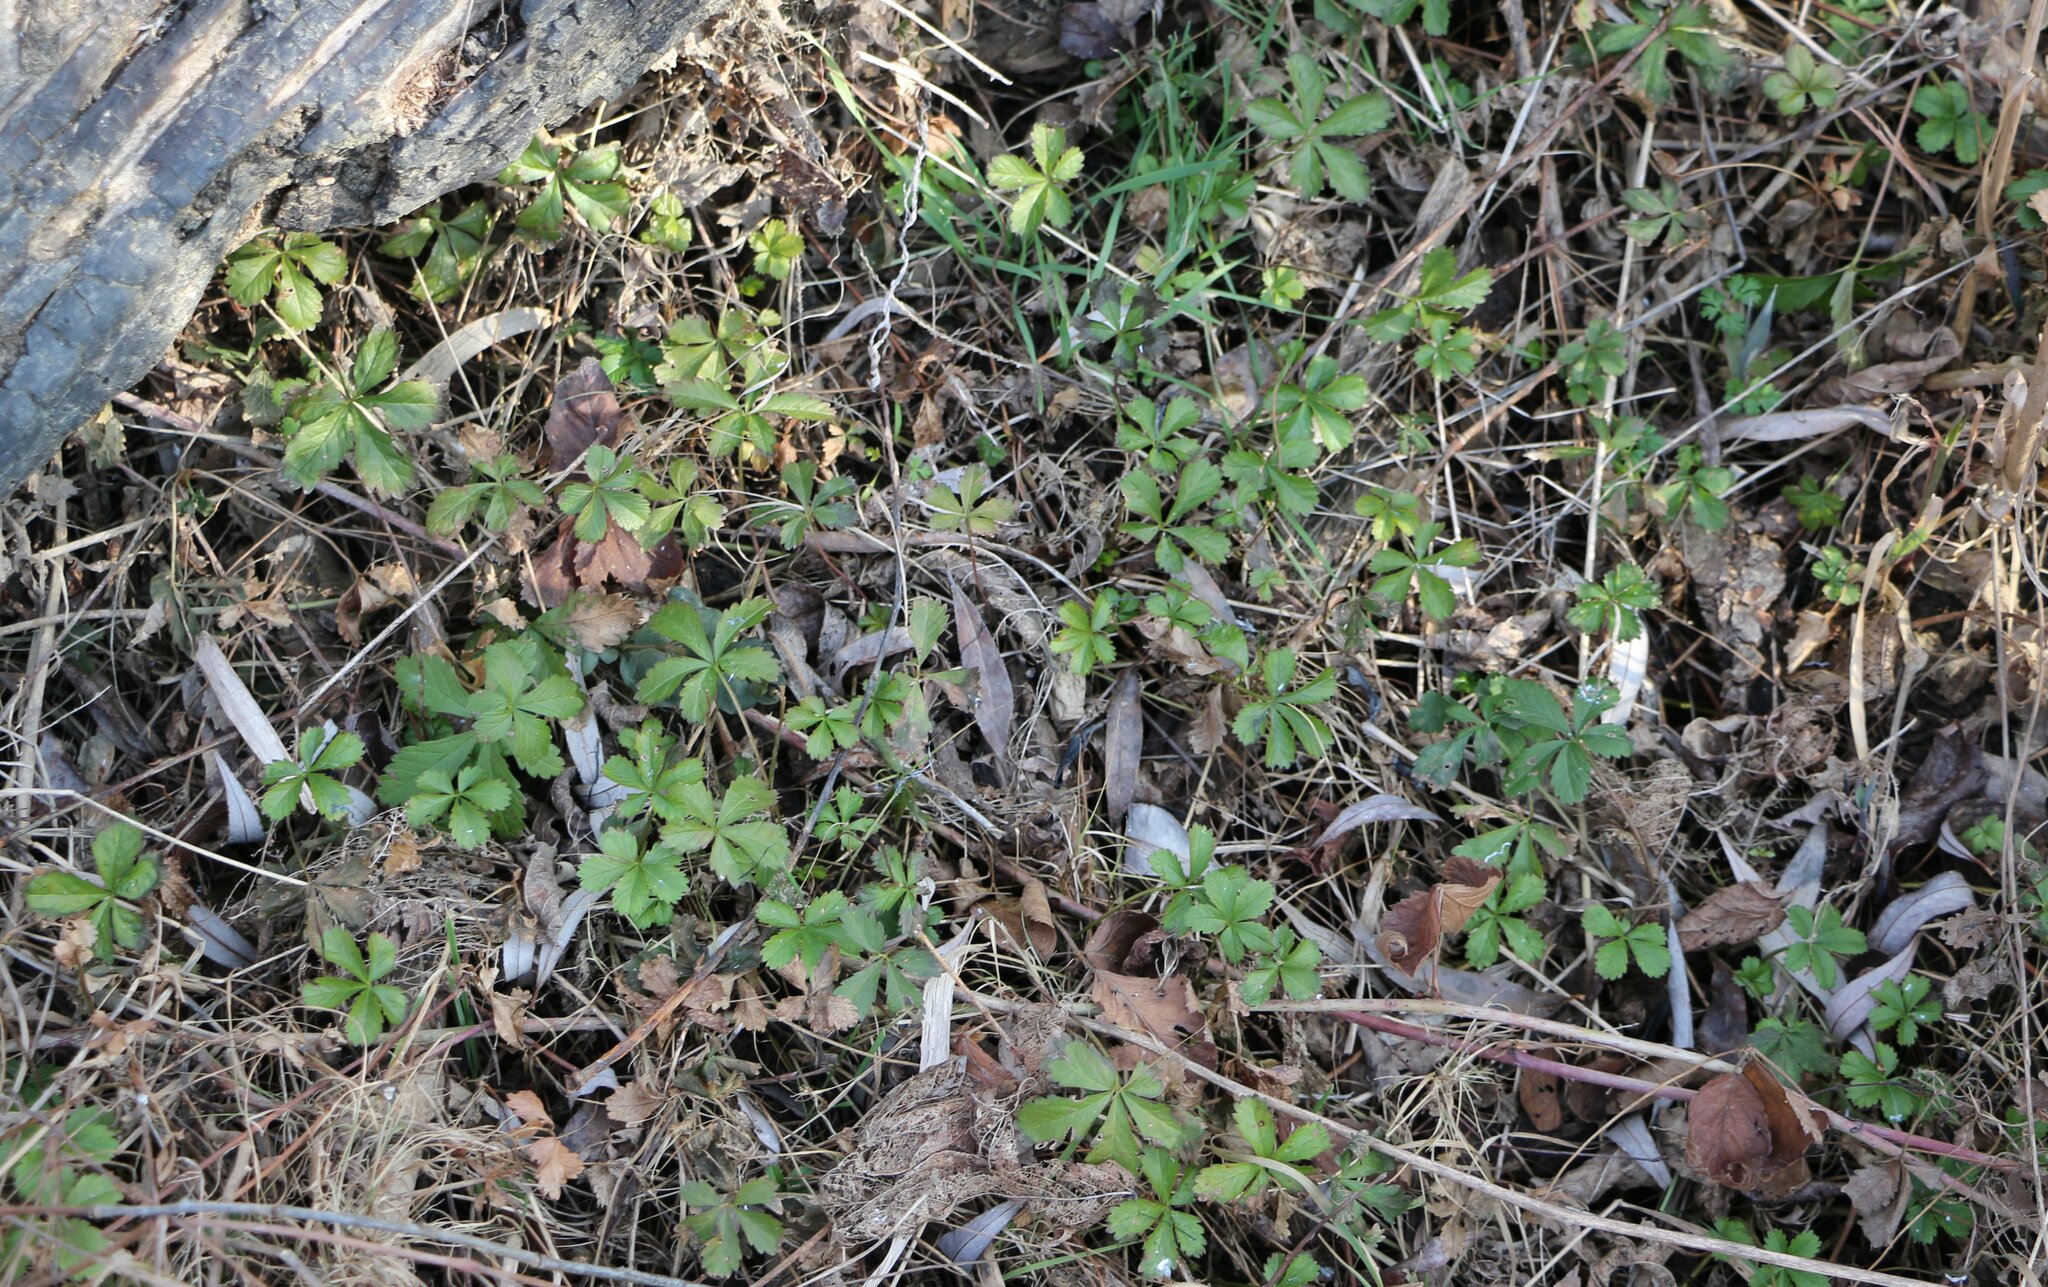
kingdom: Plantae
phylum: Tracheophyta
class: Magnoliopsida
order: Rosales
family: Rosaceae
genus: Potentilla
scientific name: Potentilla reptans
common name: Creeping cinquefoil
